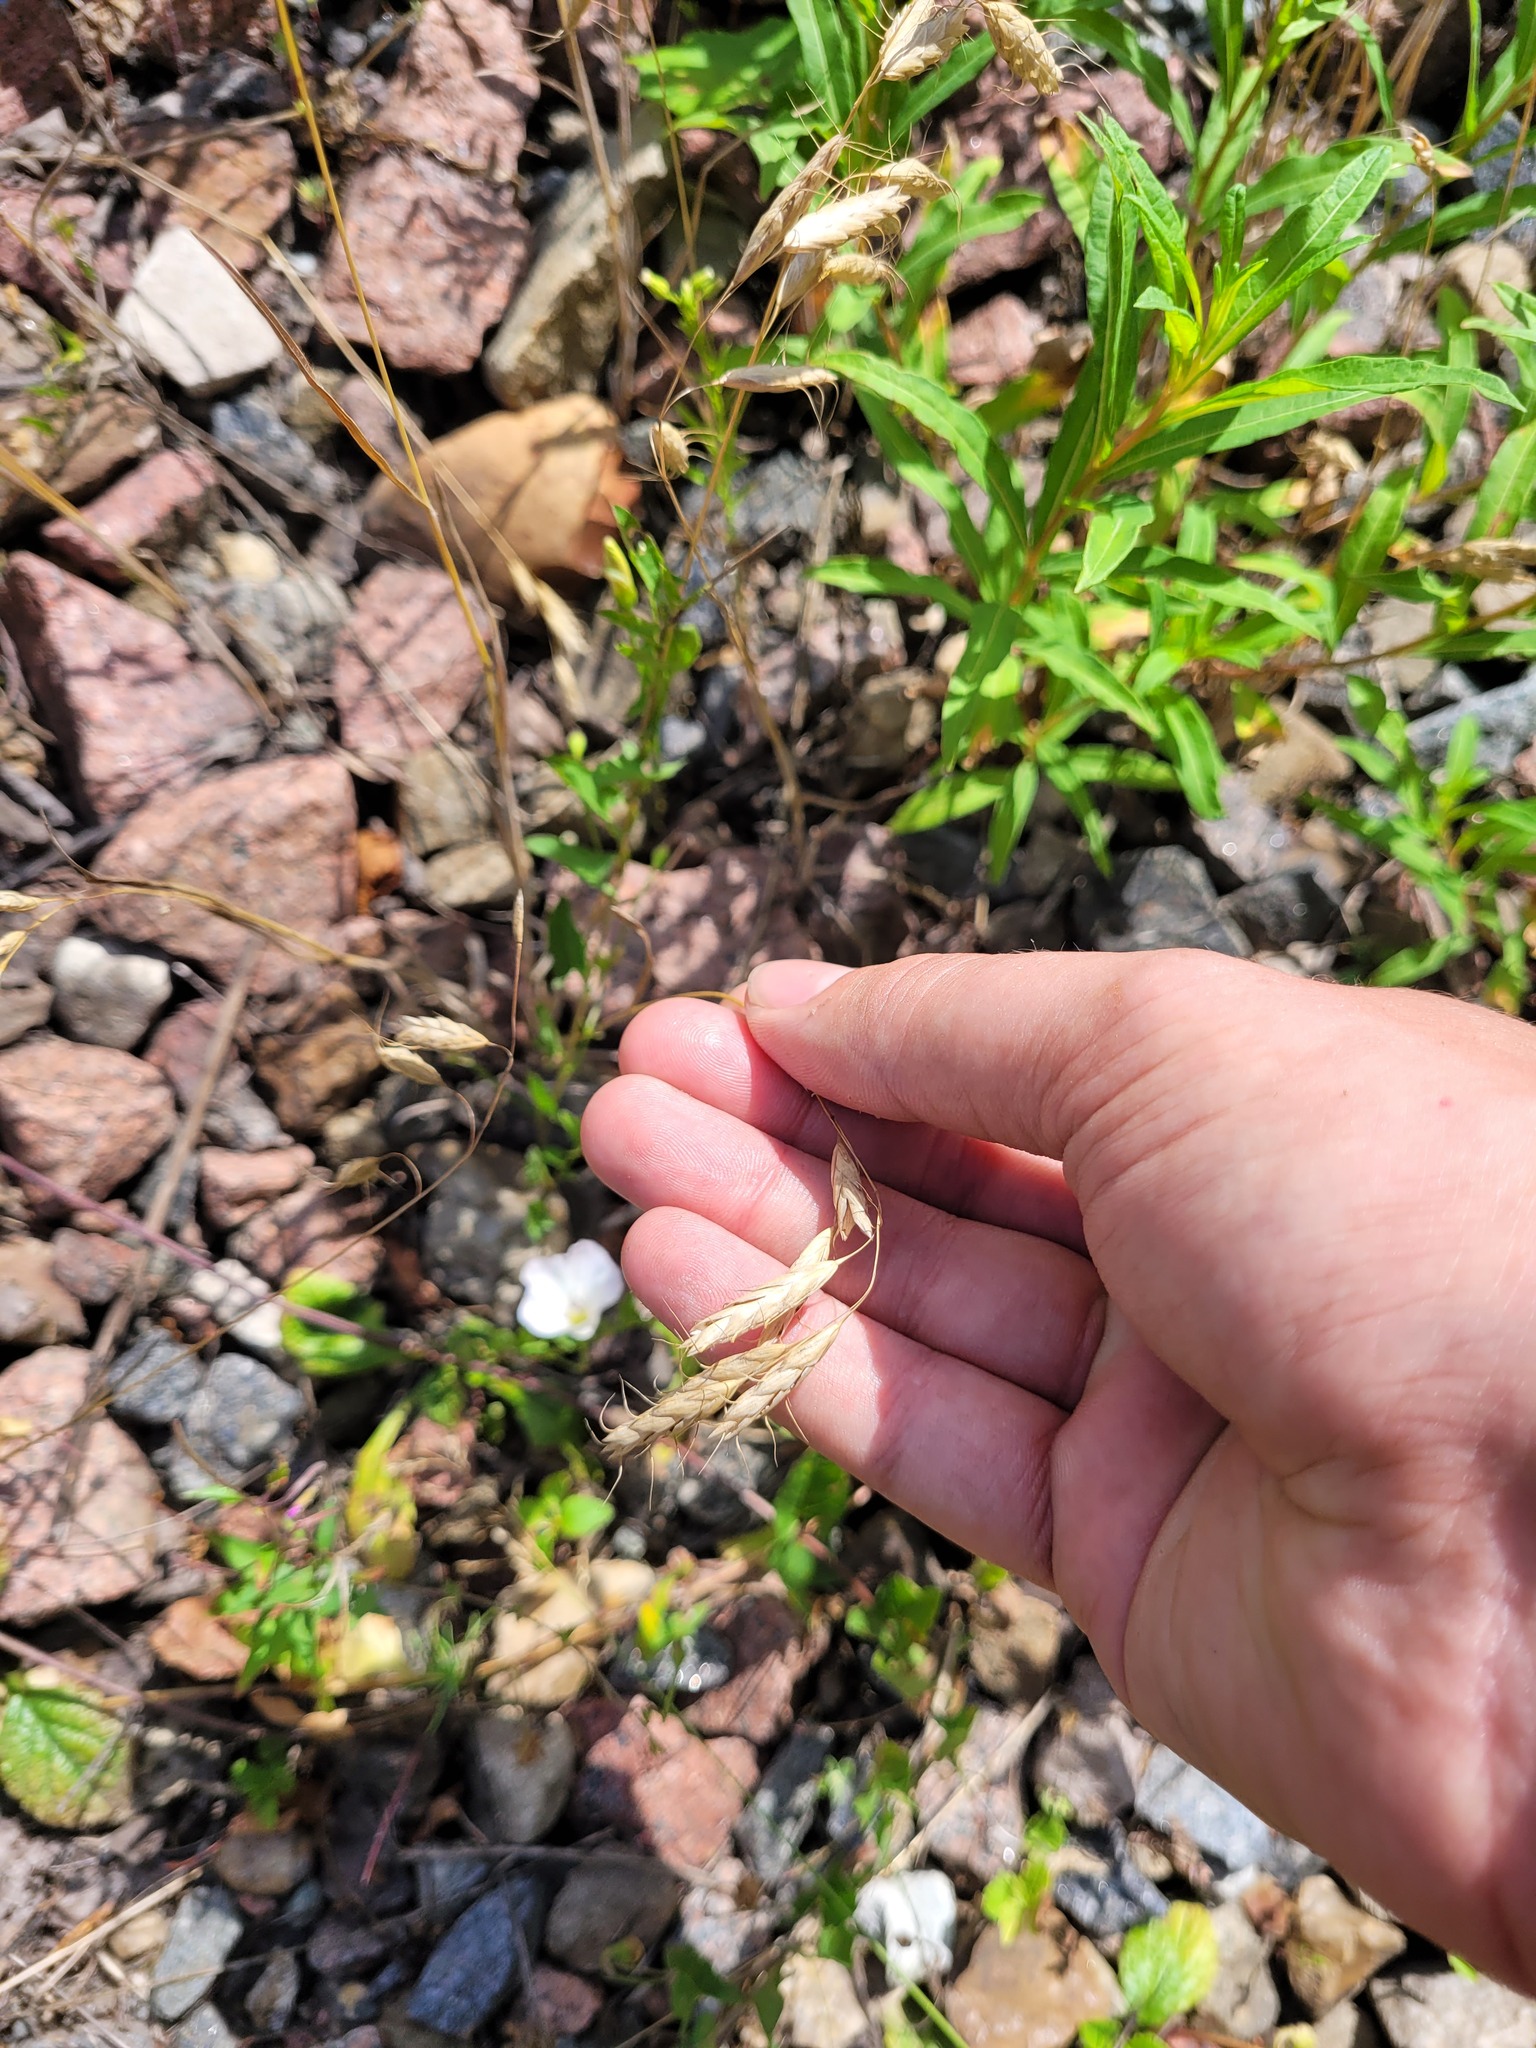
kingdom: Plantae
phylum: Tracheophyta
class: Liliopsida
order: Poales
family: Poaceae
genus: Bromus
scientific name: Bromus squarrosus
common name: Corn brome
